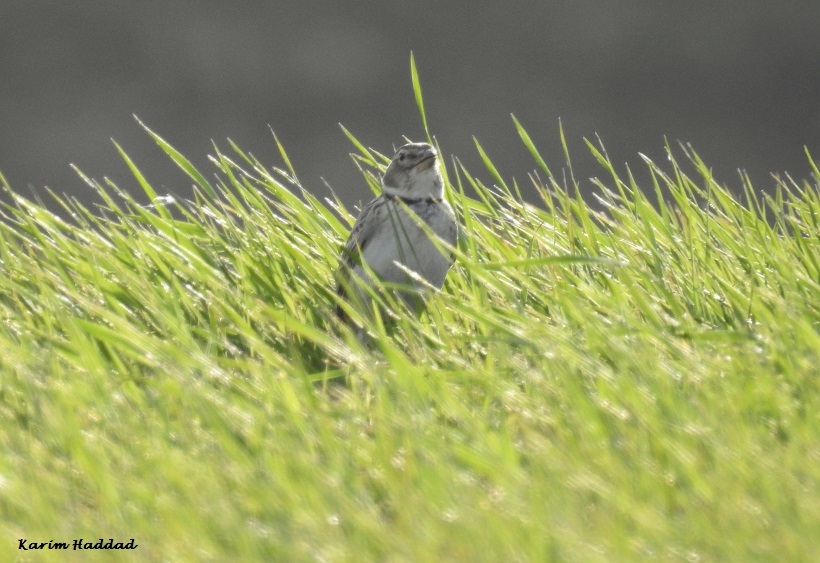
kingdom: Animalia
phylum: Chordata
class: Aves
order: Passeriformes
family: Alaudidae
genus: Melanocorypha
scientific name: Melanocorypha calandra
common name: Calandra lark
